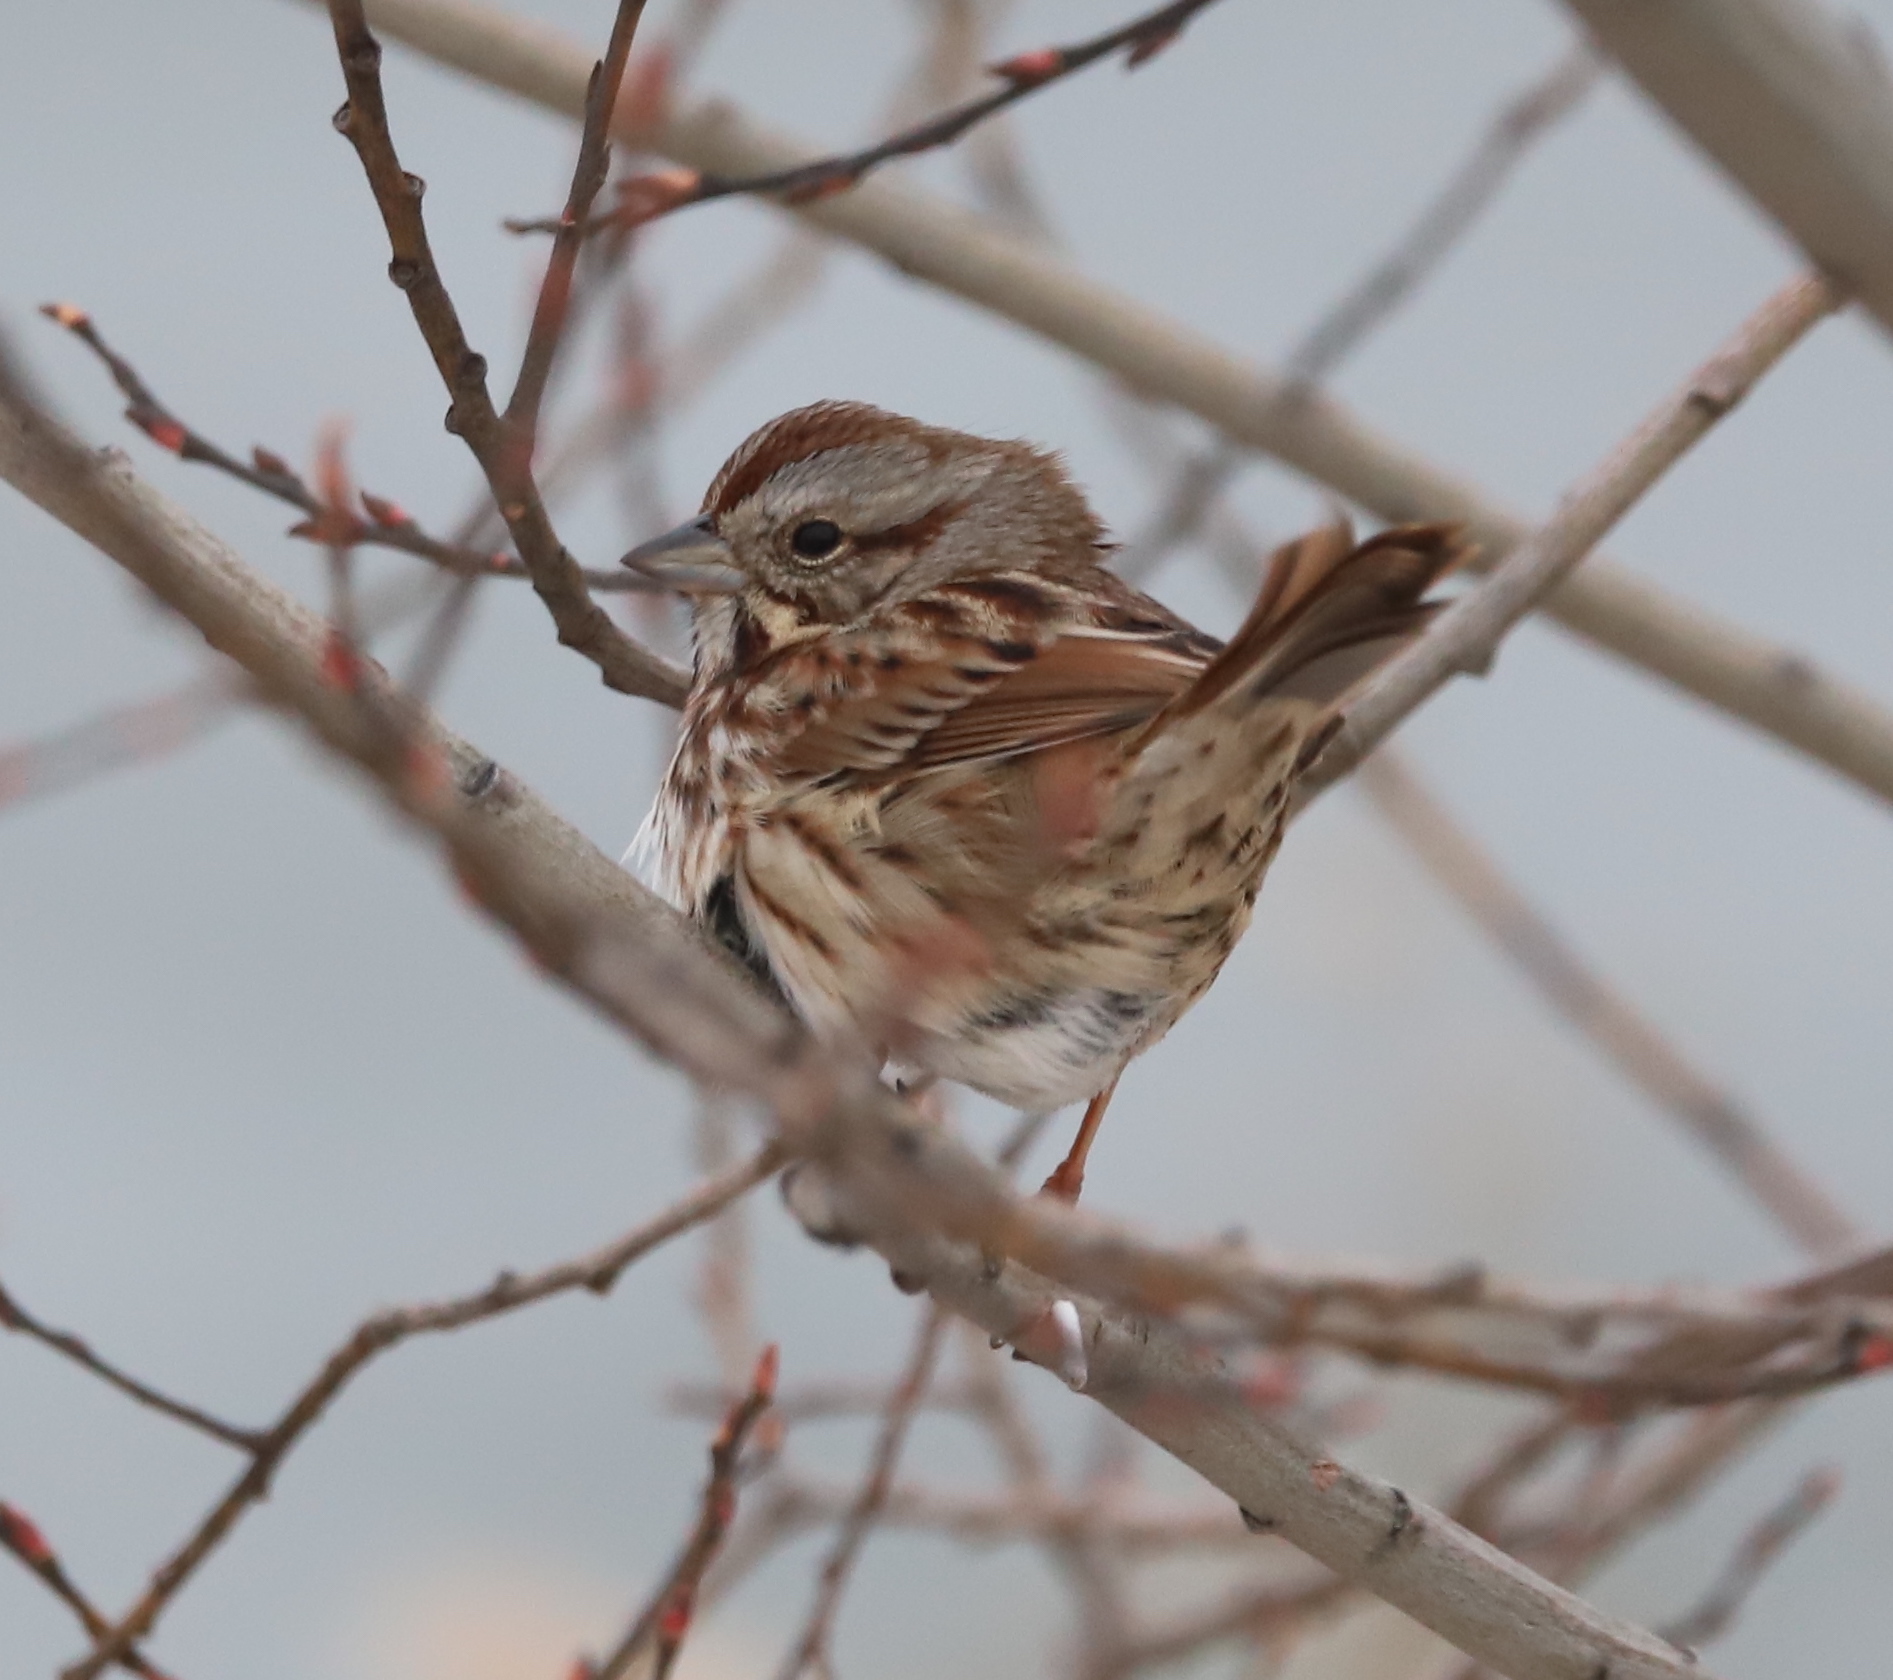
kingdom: Animalia
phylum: Chordata
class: Aves
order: Passeriformes
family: Passerellidae
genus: Melospiza
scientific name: Melospiza melodia
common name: Song sparrow
